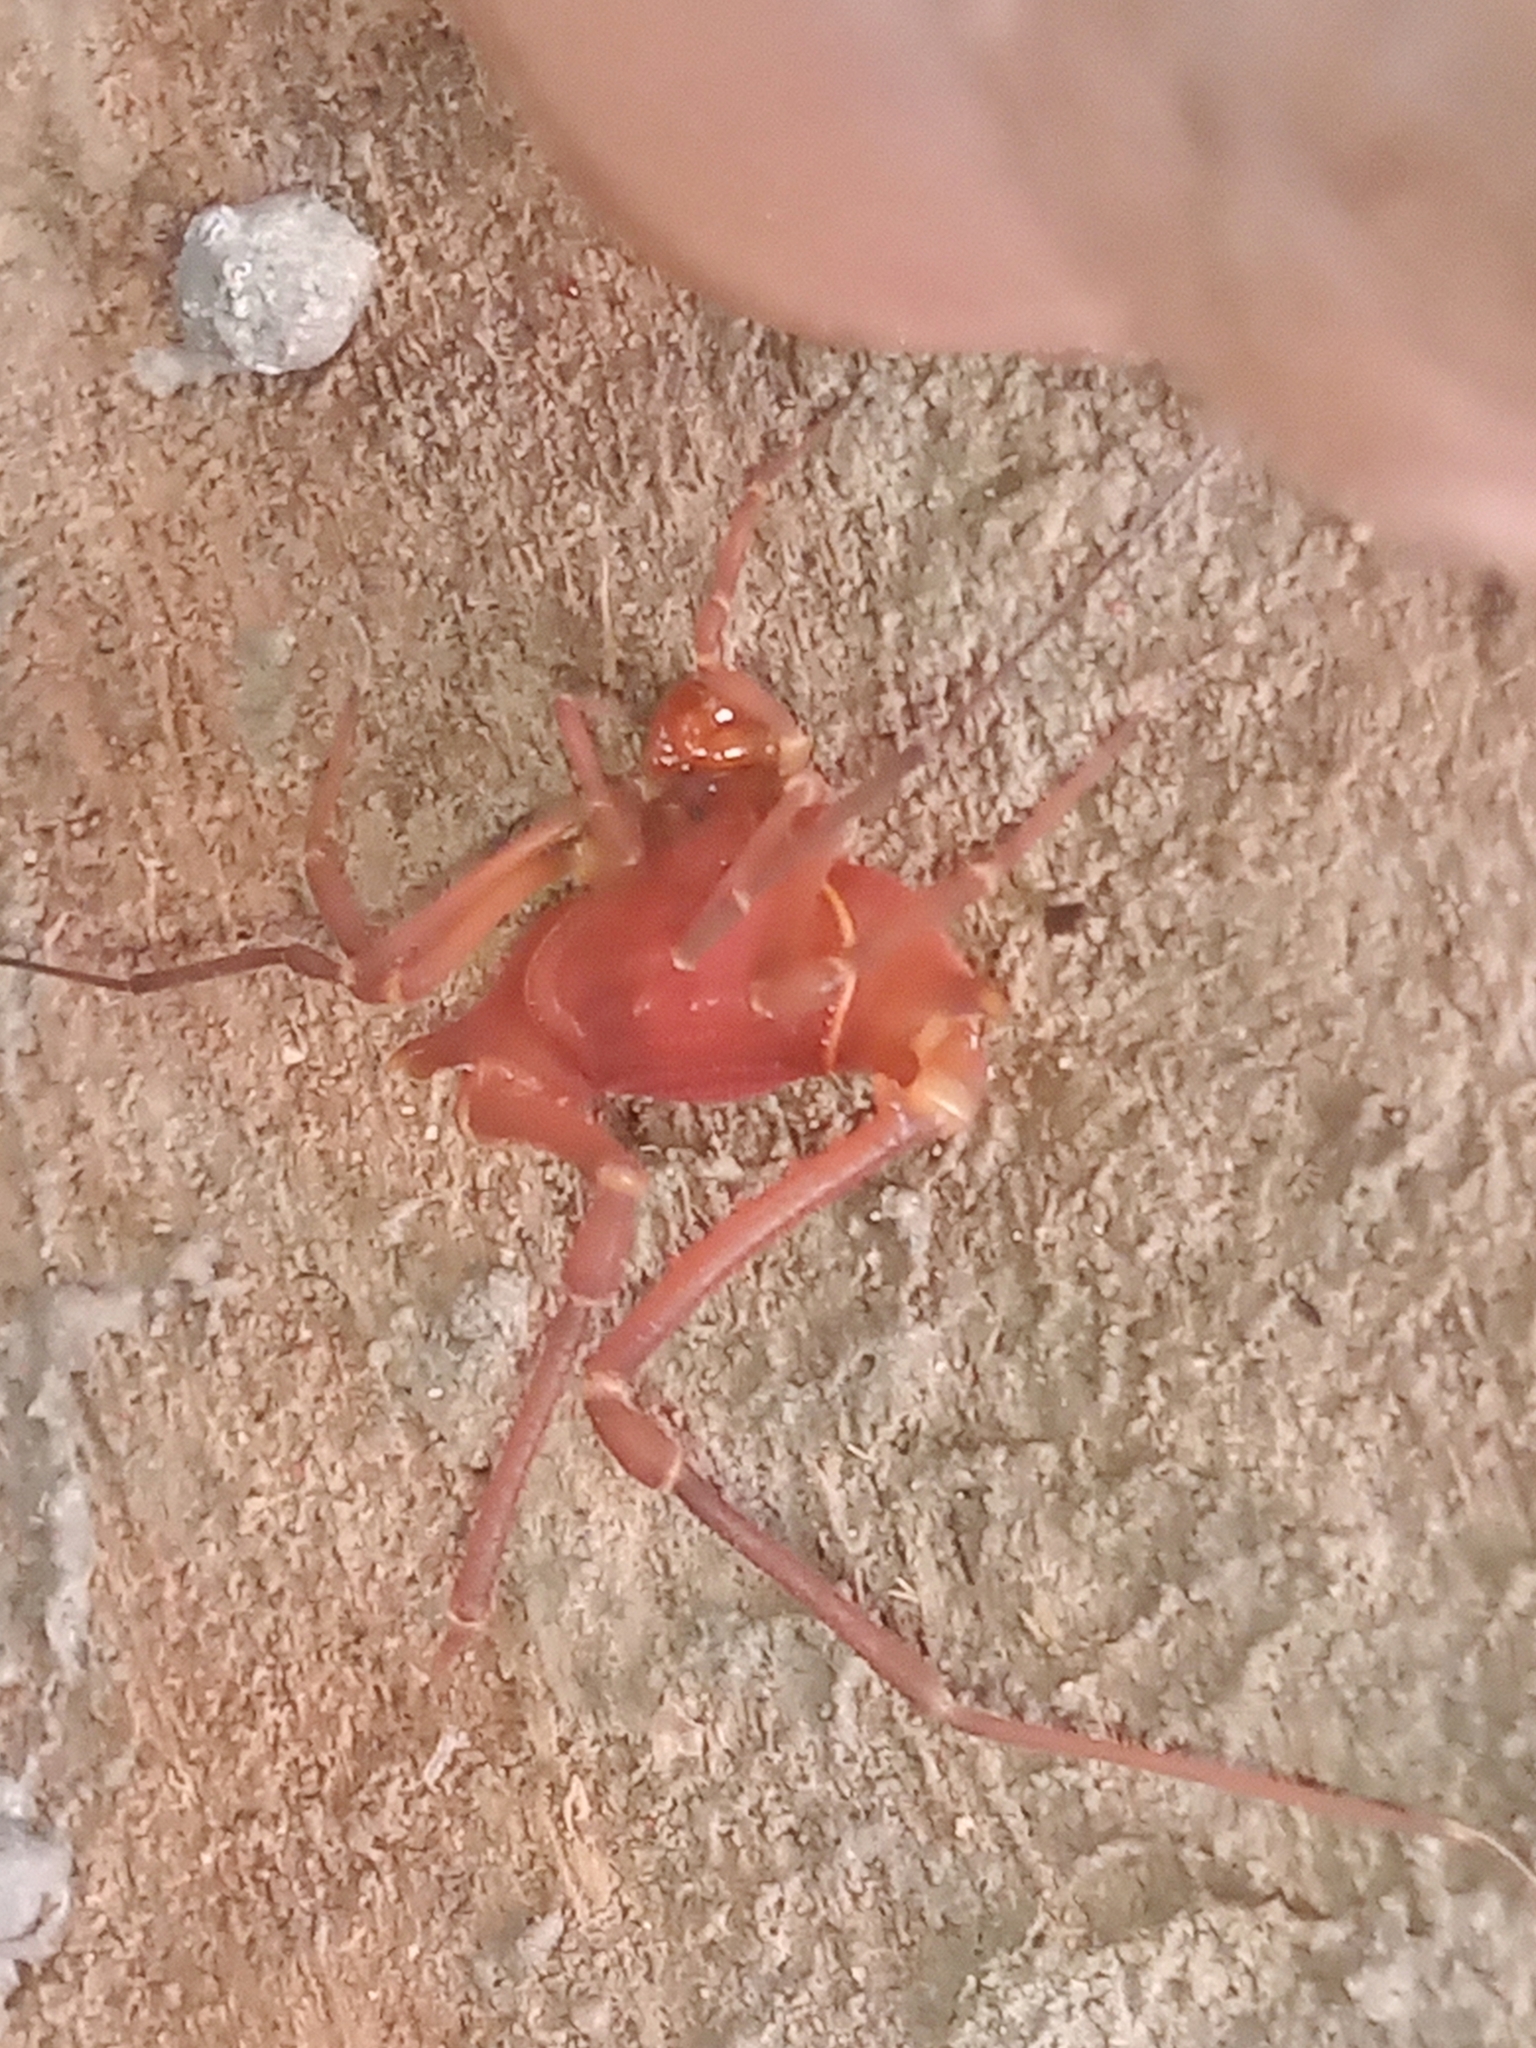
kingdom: Animalia
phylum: Arthropoda
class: Arachnida
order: Opiliones
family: Gonyleptidae
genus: Krateromaspis
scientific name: Krateromaspis dilatata
